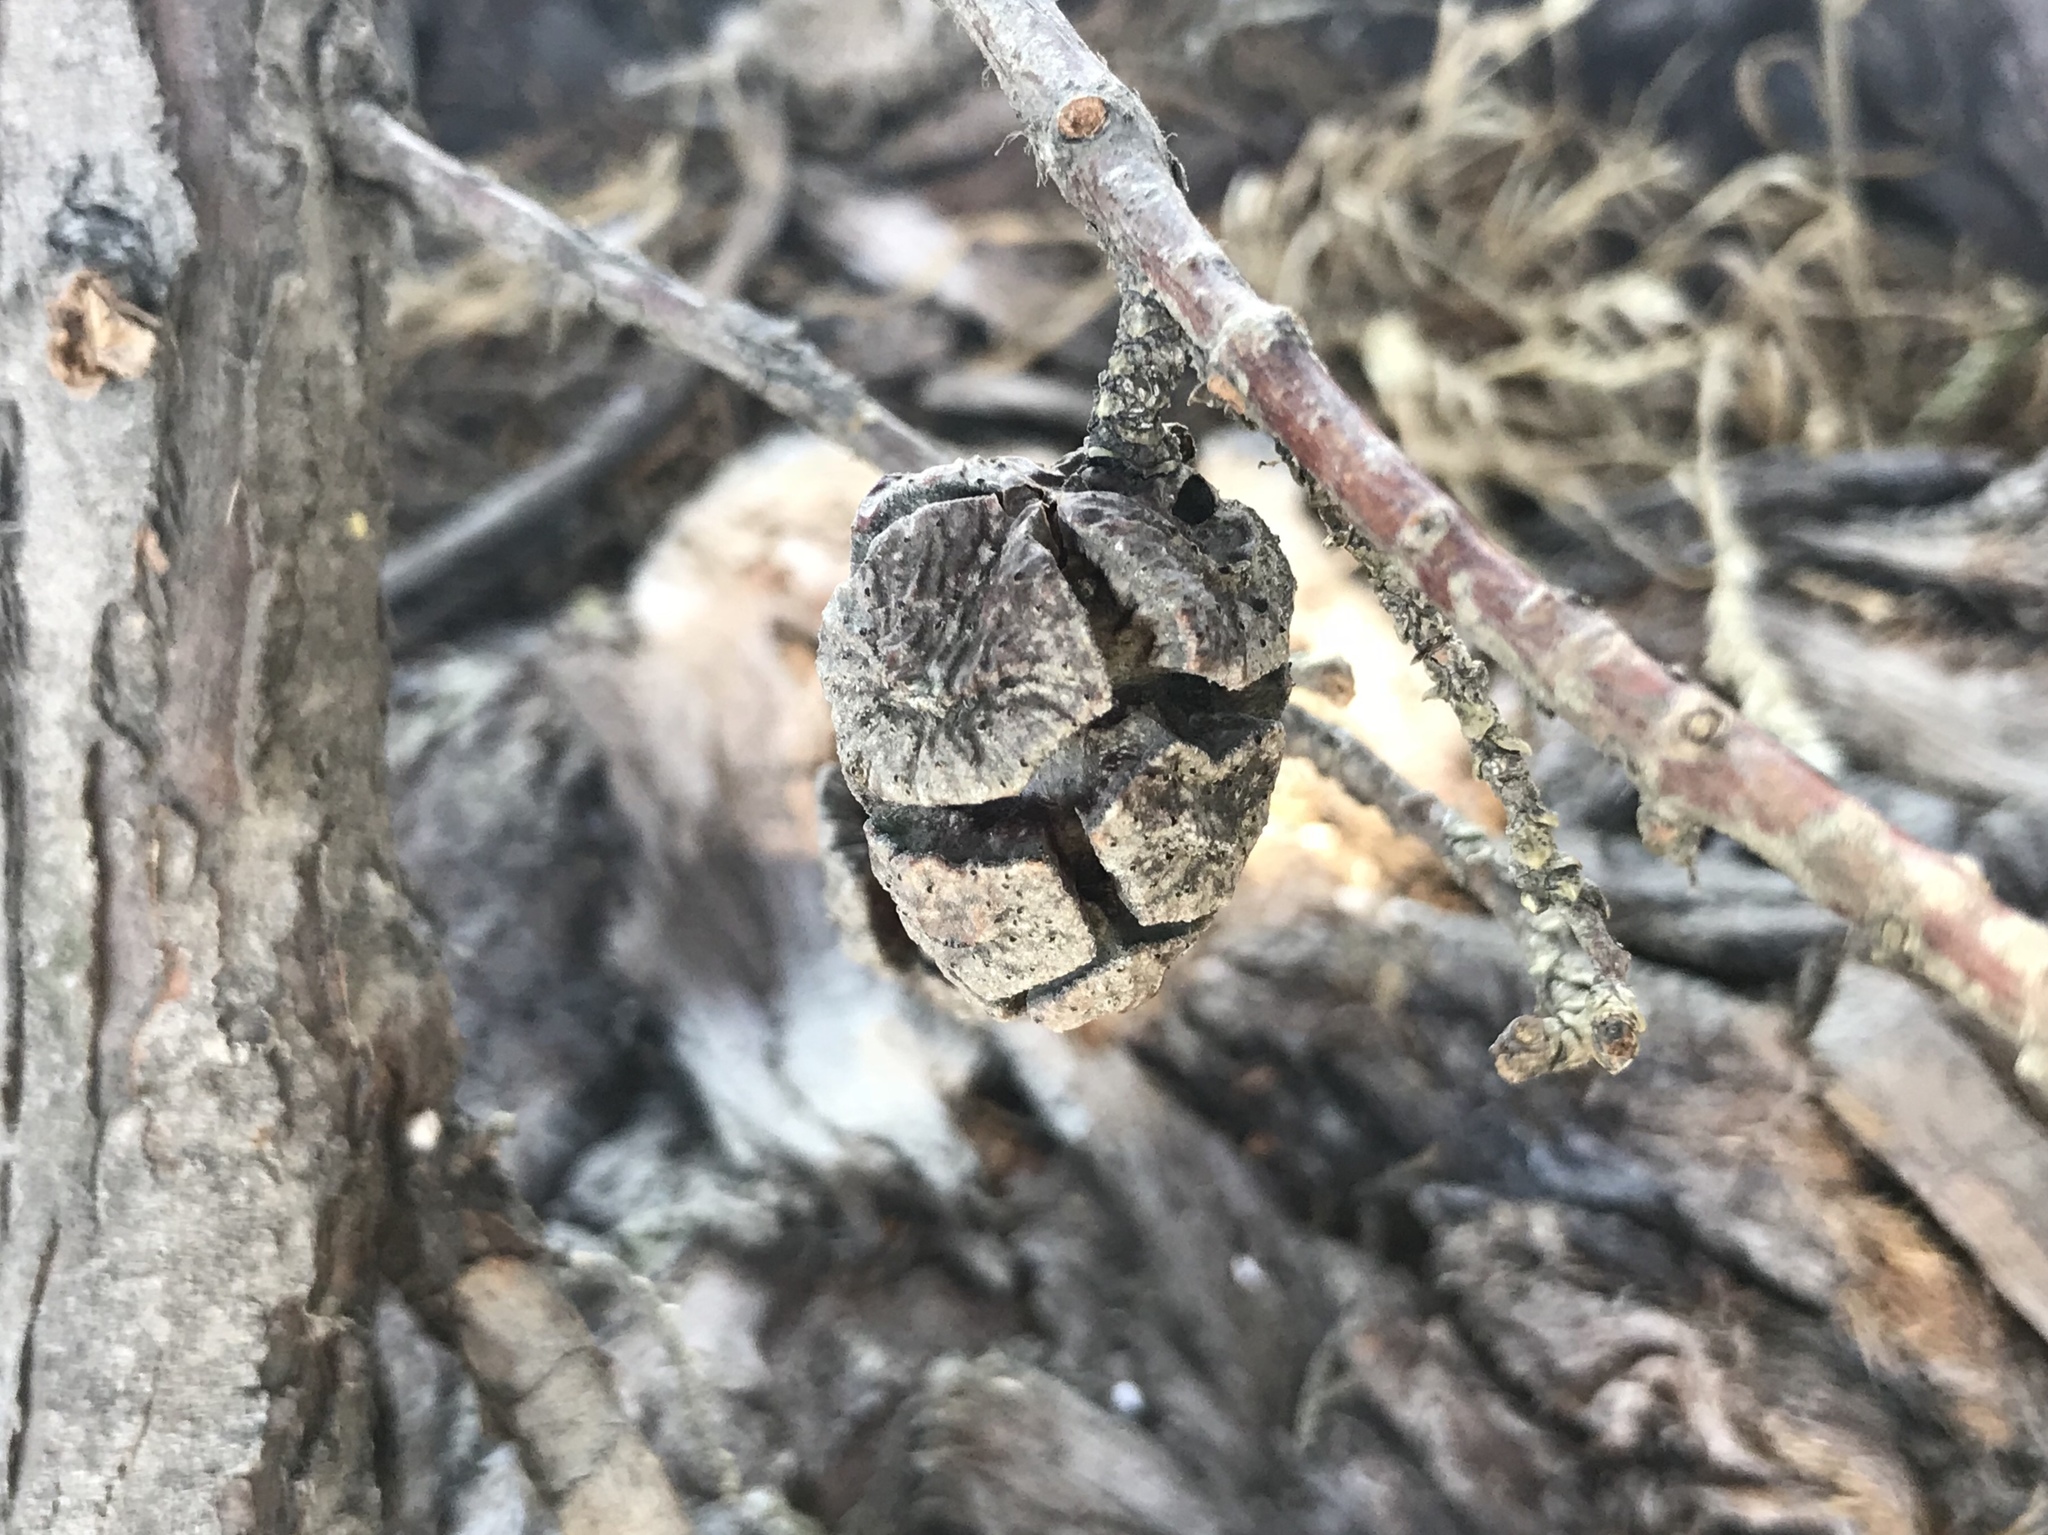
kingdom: Plantae
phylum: Tracheophyta
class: Pinopsida
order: Pinales
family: Cupressaceae
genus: Cupressus
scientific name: Cupressus macrocarpa
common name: Monterey cypress
